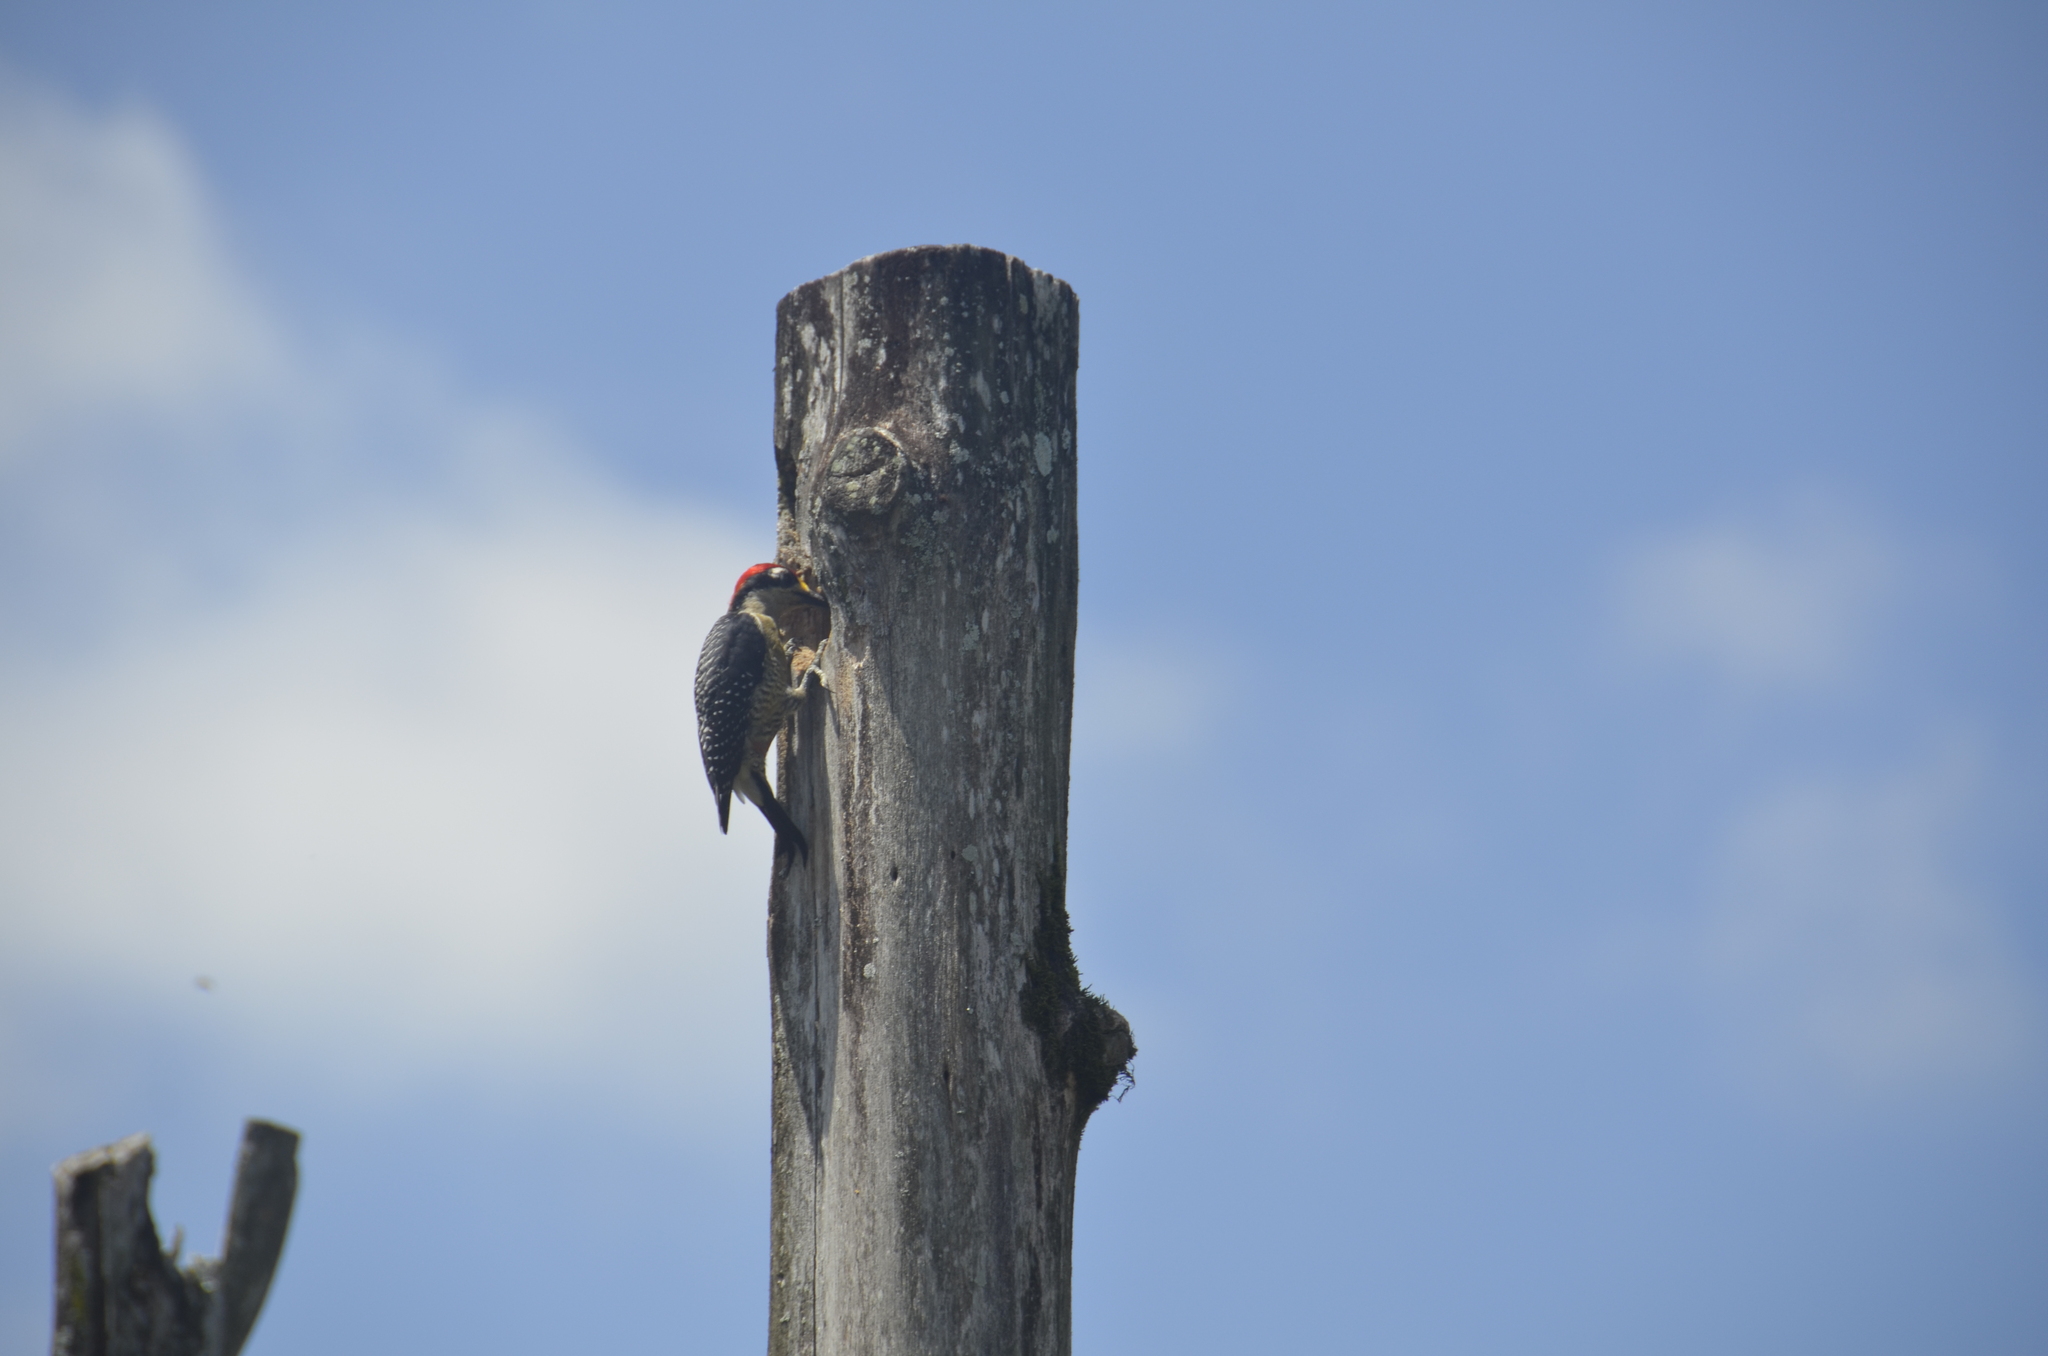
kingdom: Animalia
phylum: Chordata
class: Aves
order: Piciformes
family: Picidae
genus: Melanerpes
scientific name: Melanerpes pucherani
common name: Black-cheeked woodpecker
